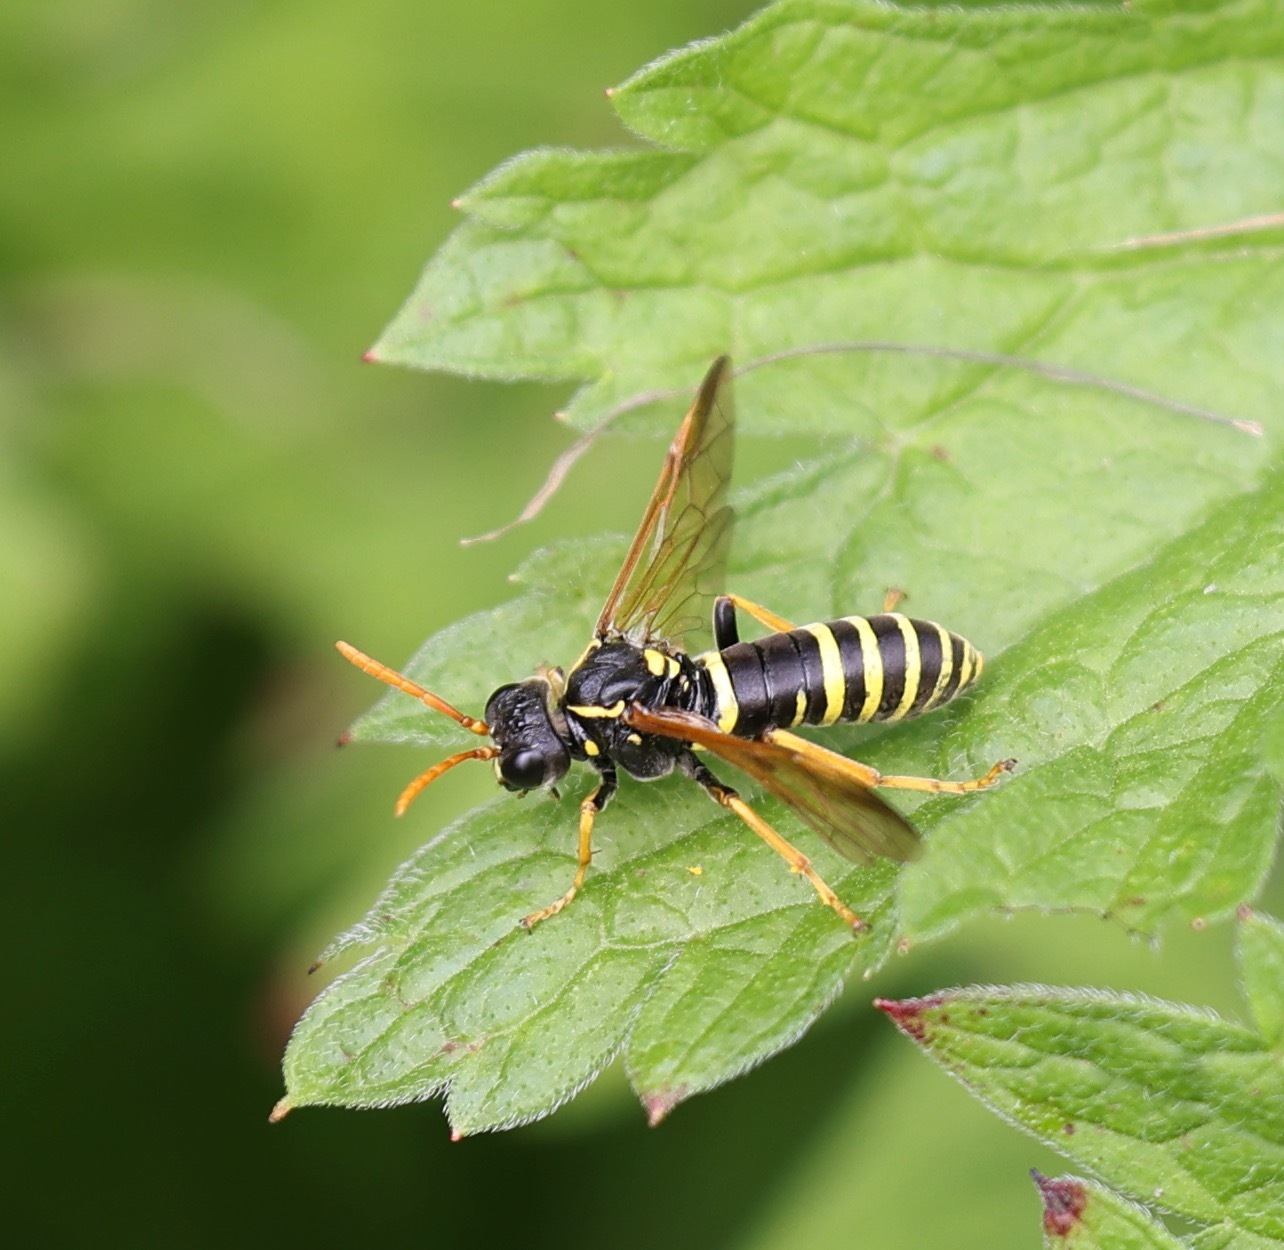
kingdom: Animalia
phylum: Arthropoda
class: Insecta
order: Hymenoptera
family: Tenthredinidae
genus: Tenthredo
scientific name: Tenthredo scrophulariae
